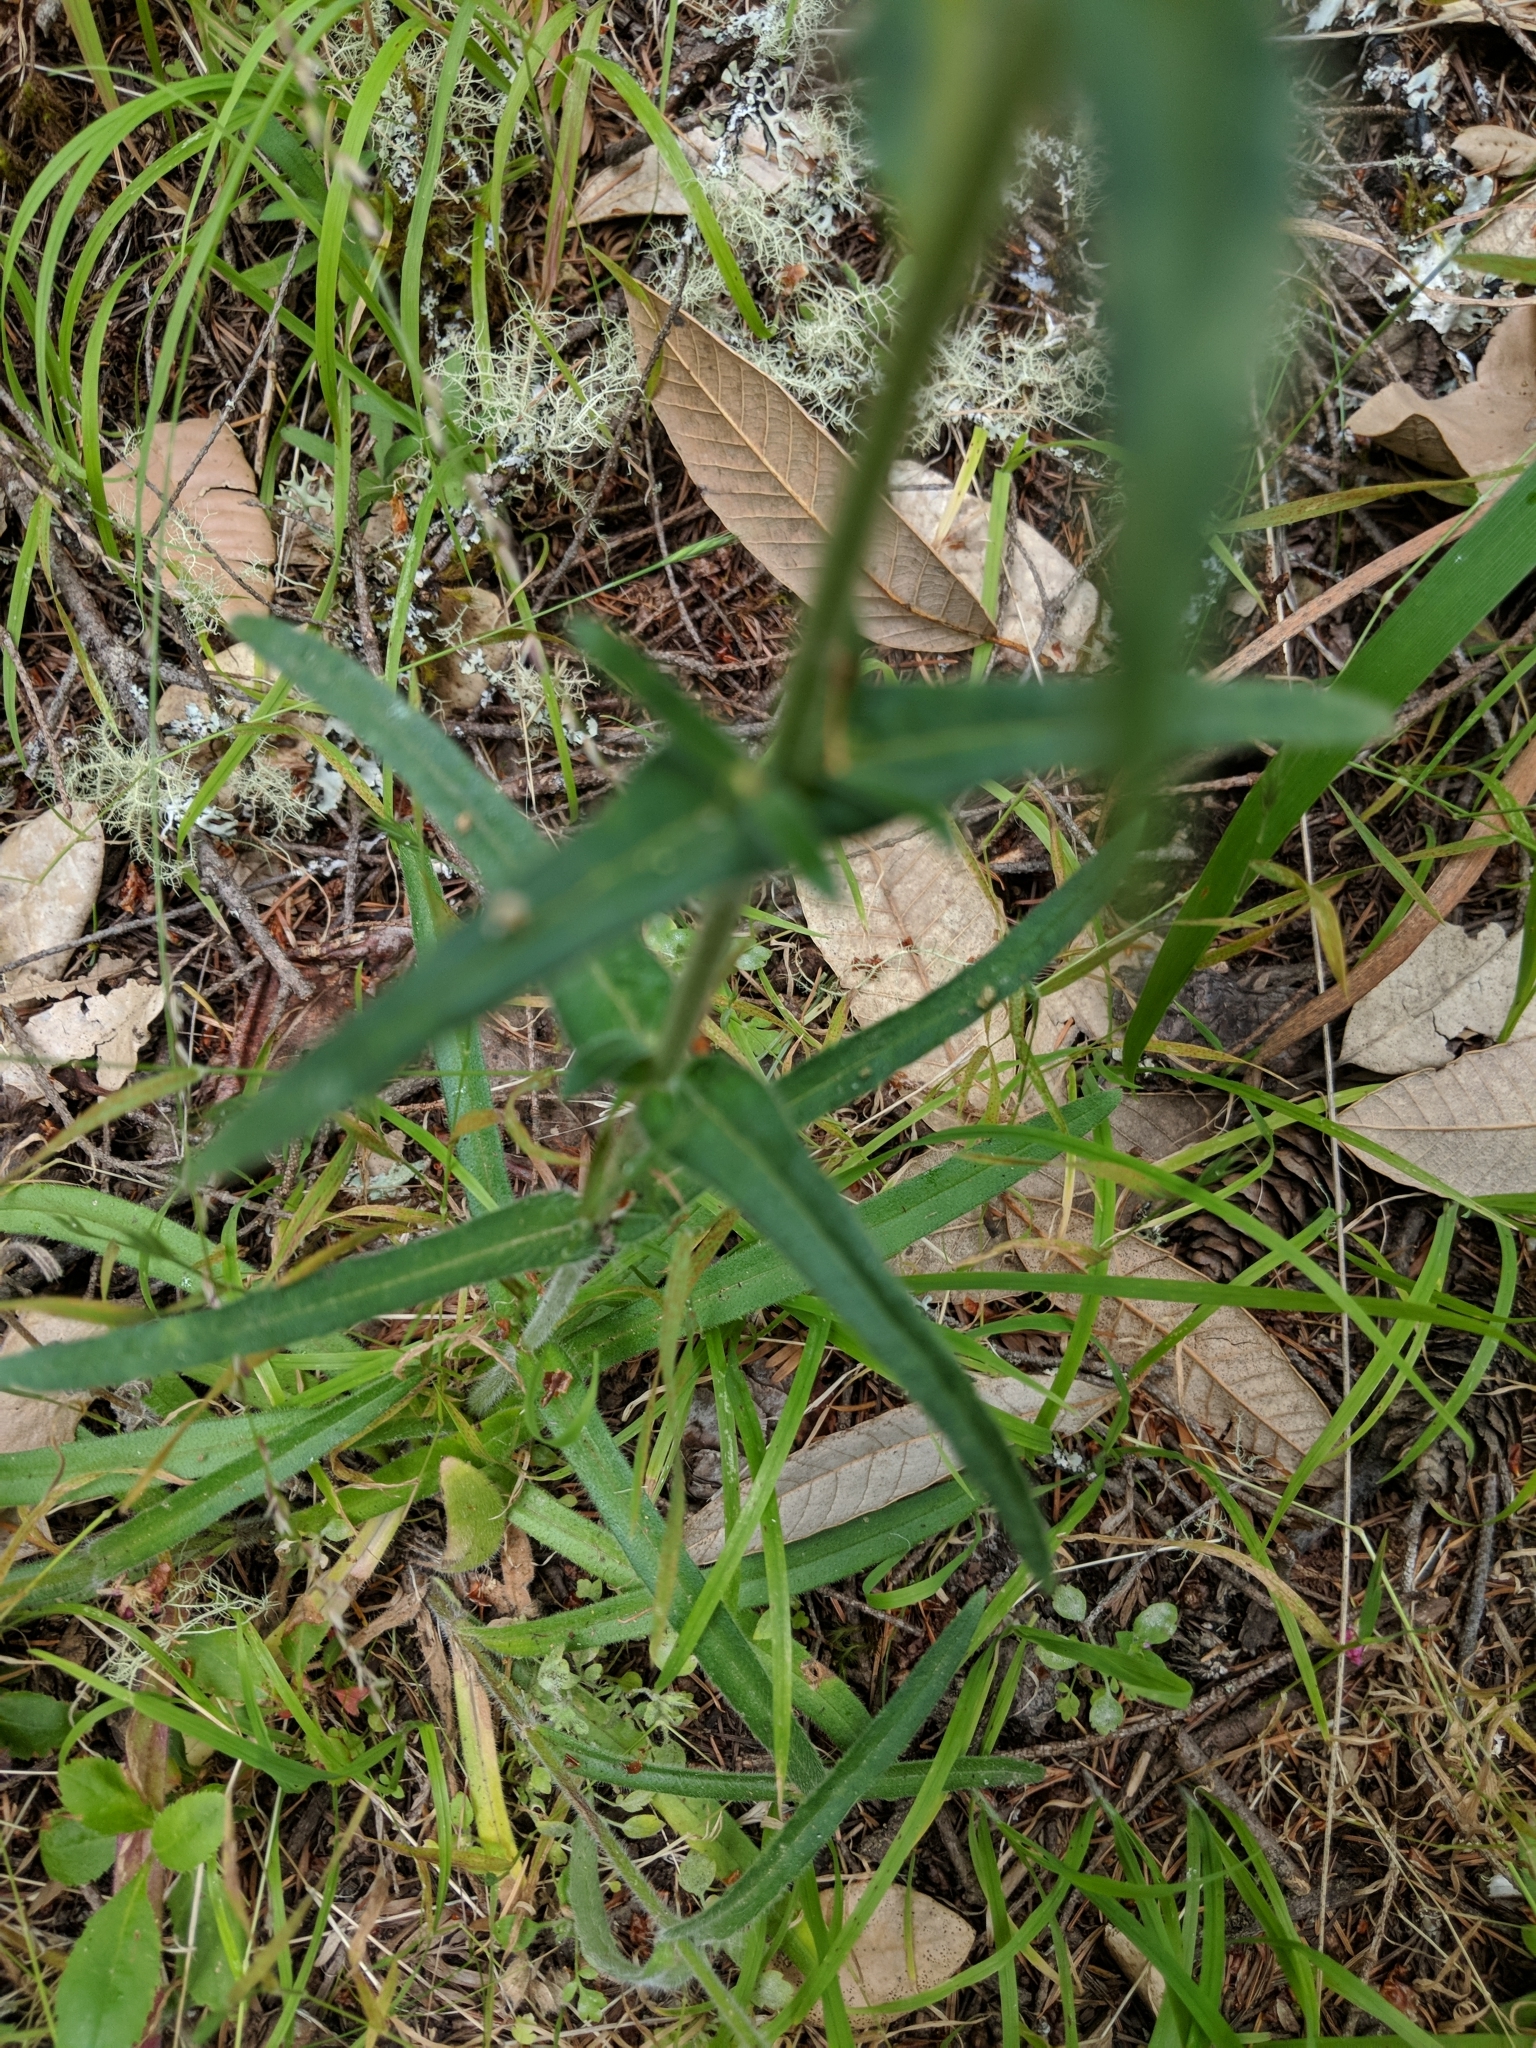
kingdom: Plantae
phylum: Tracheophyta
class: Magnoliopsida
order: Asterales
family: Asteraceae
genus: Anisocarpus
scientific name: Anisocarpus madioides
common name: Woodland madia
